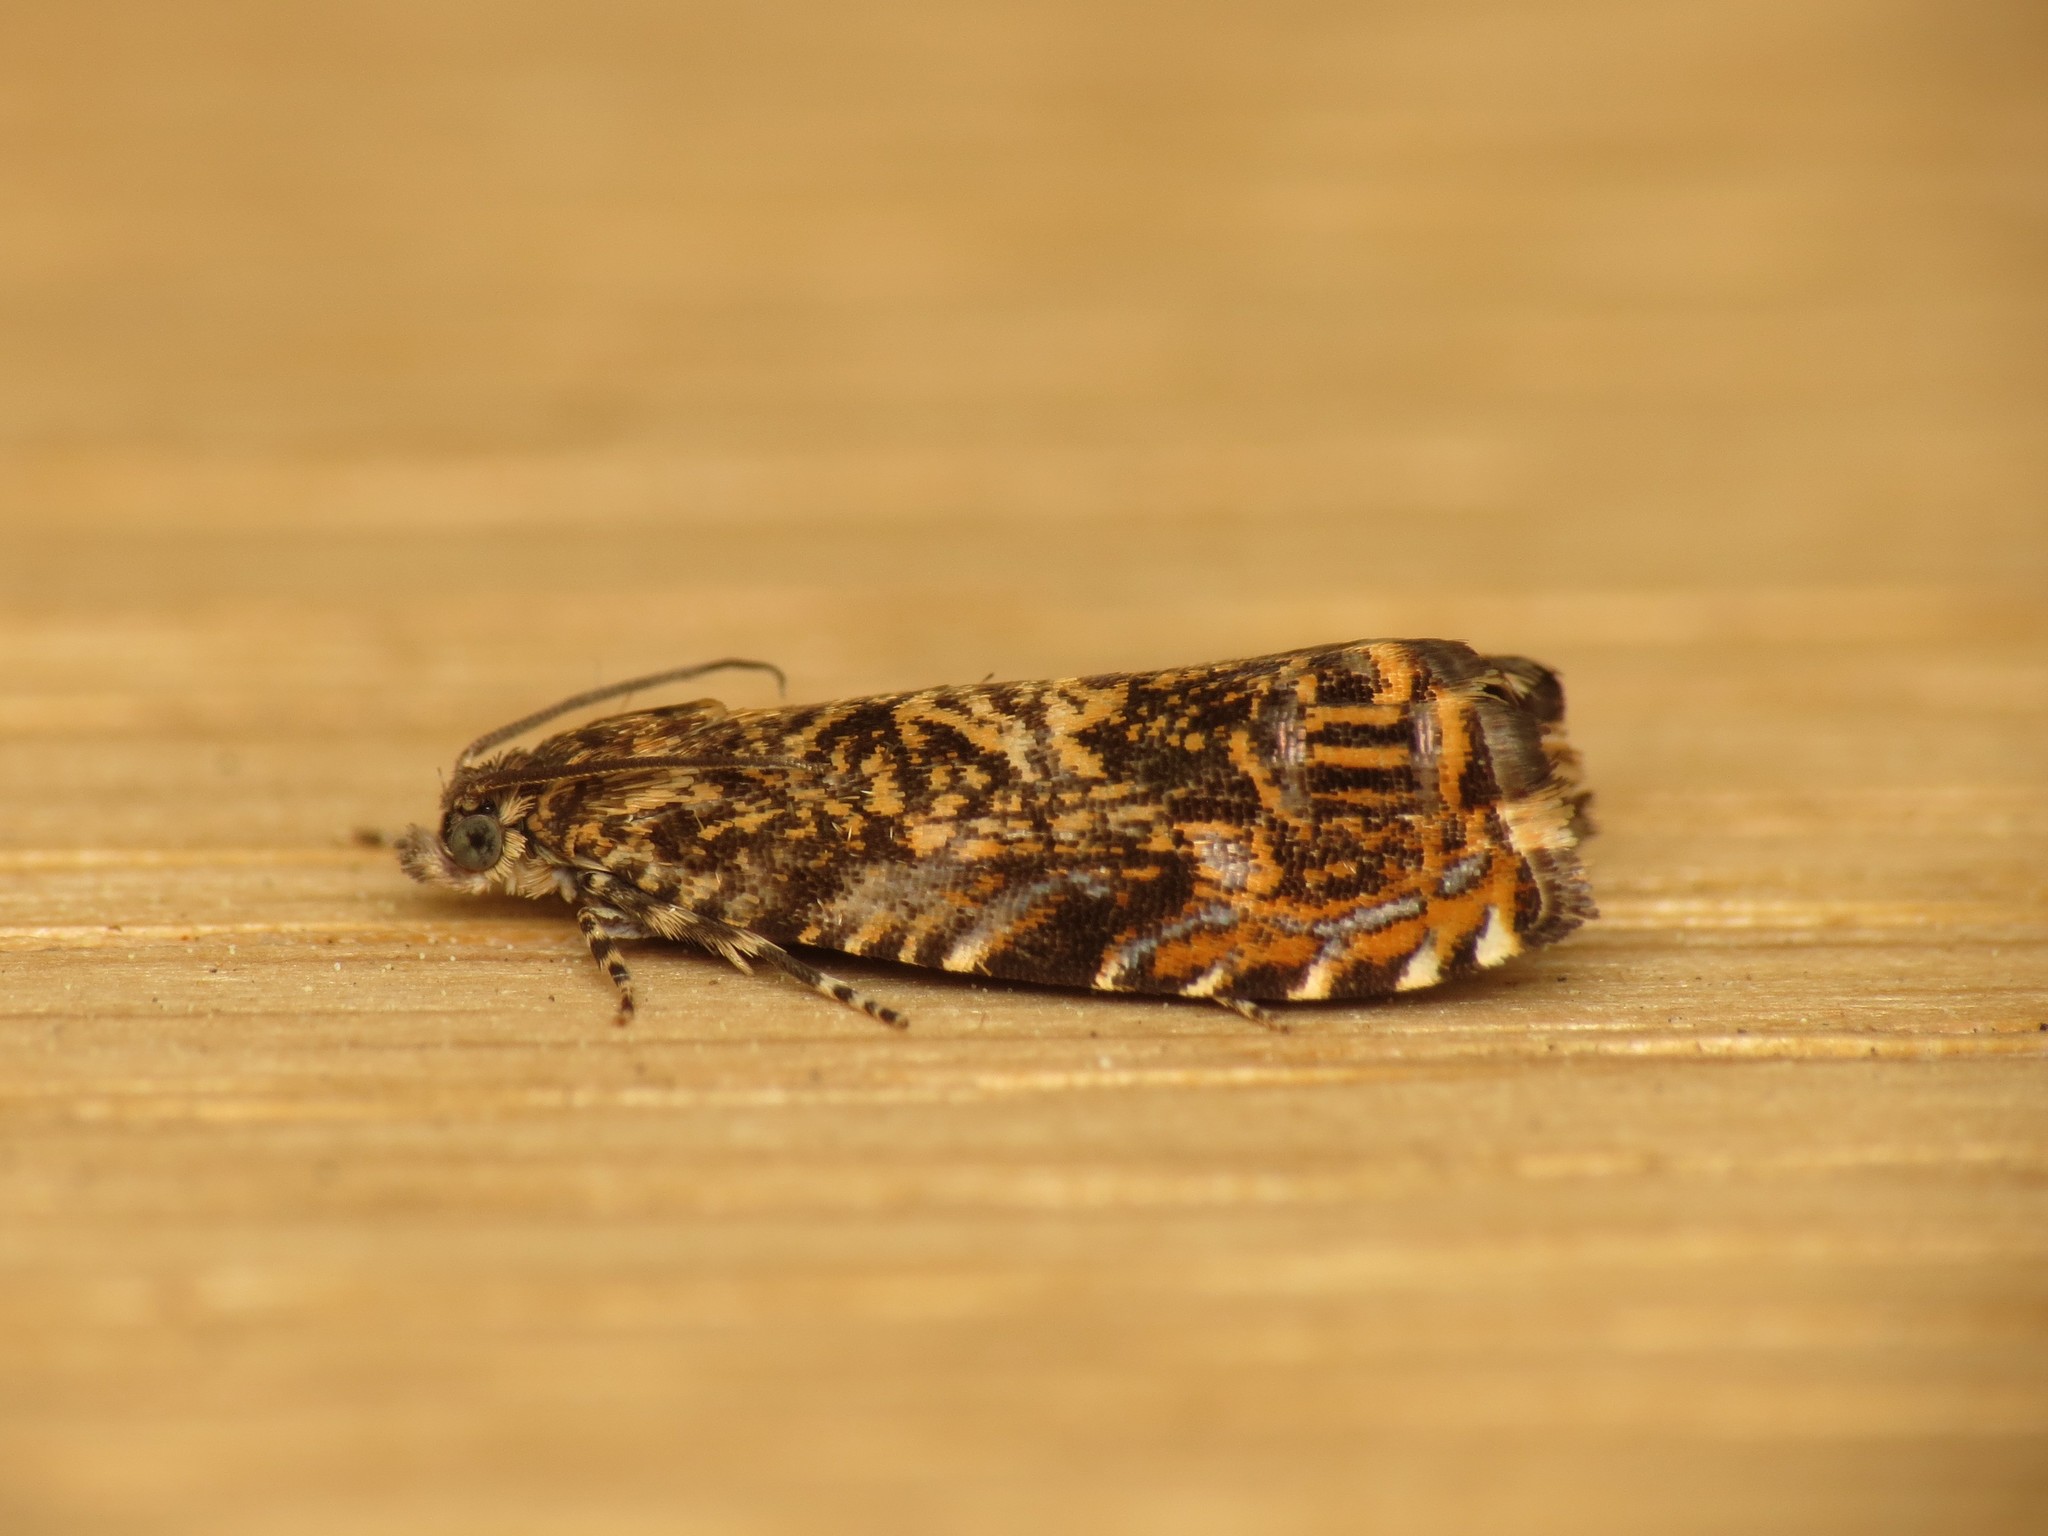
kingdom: Animalia
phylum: Arthropoda
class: Insecta
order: Lepidoptera
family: Tortricidae
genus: Enarmonia
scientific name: Enarmonia formosana
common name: Cherry bark tortrix
